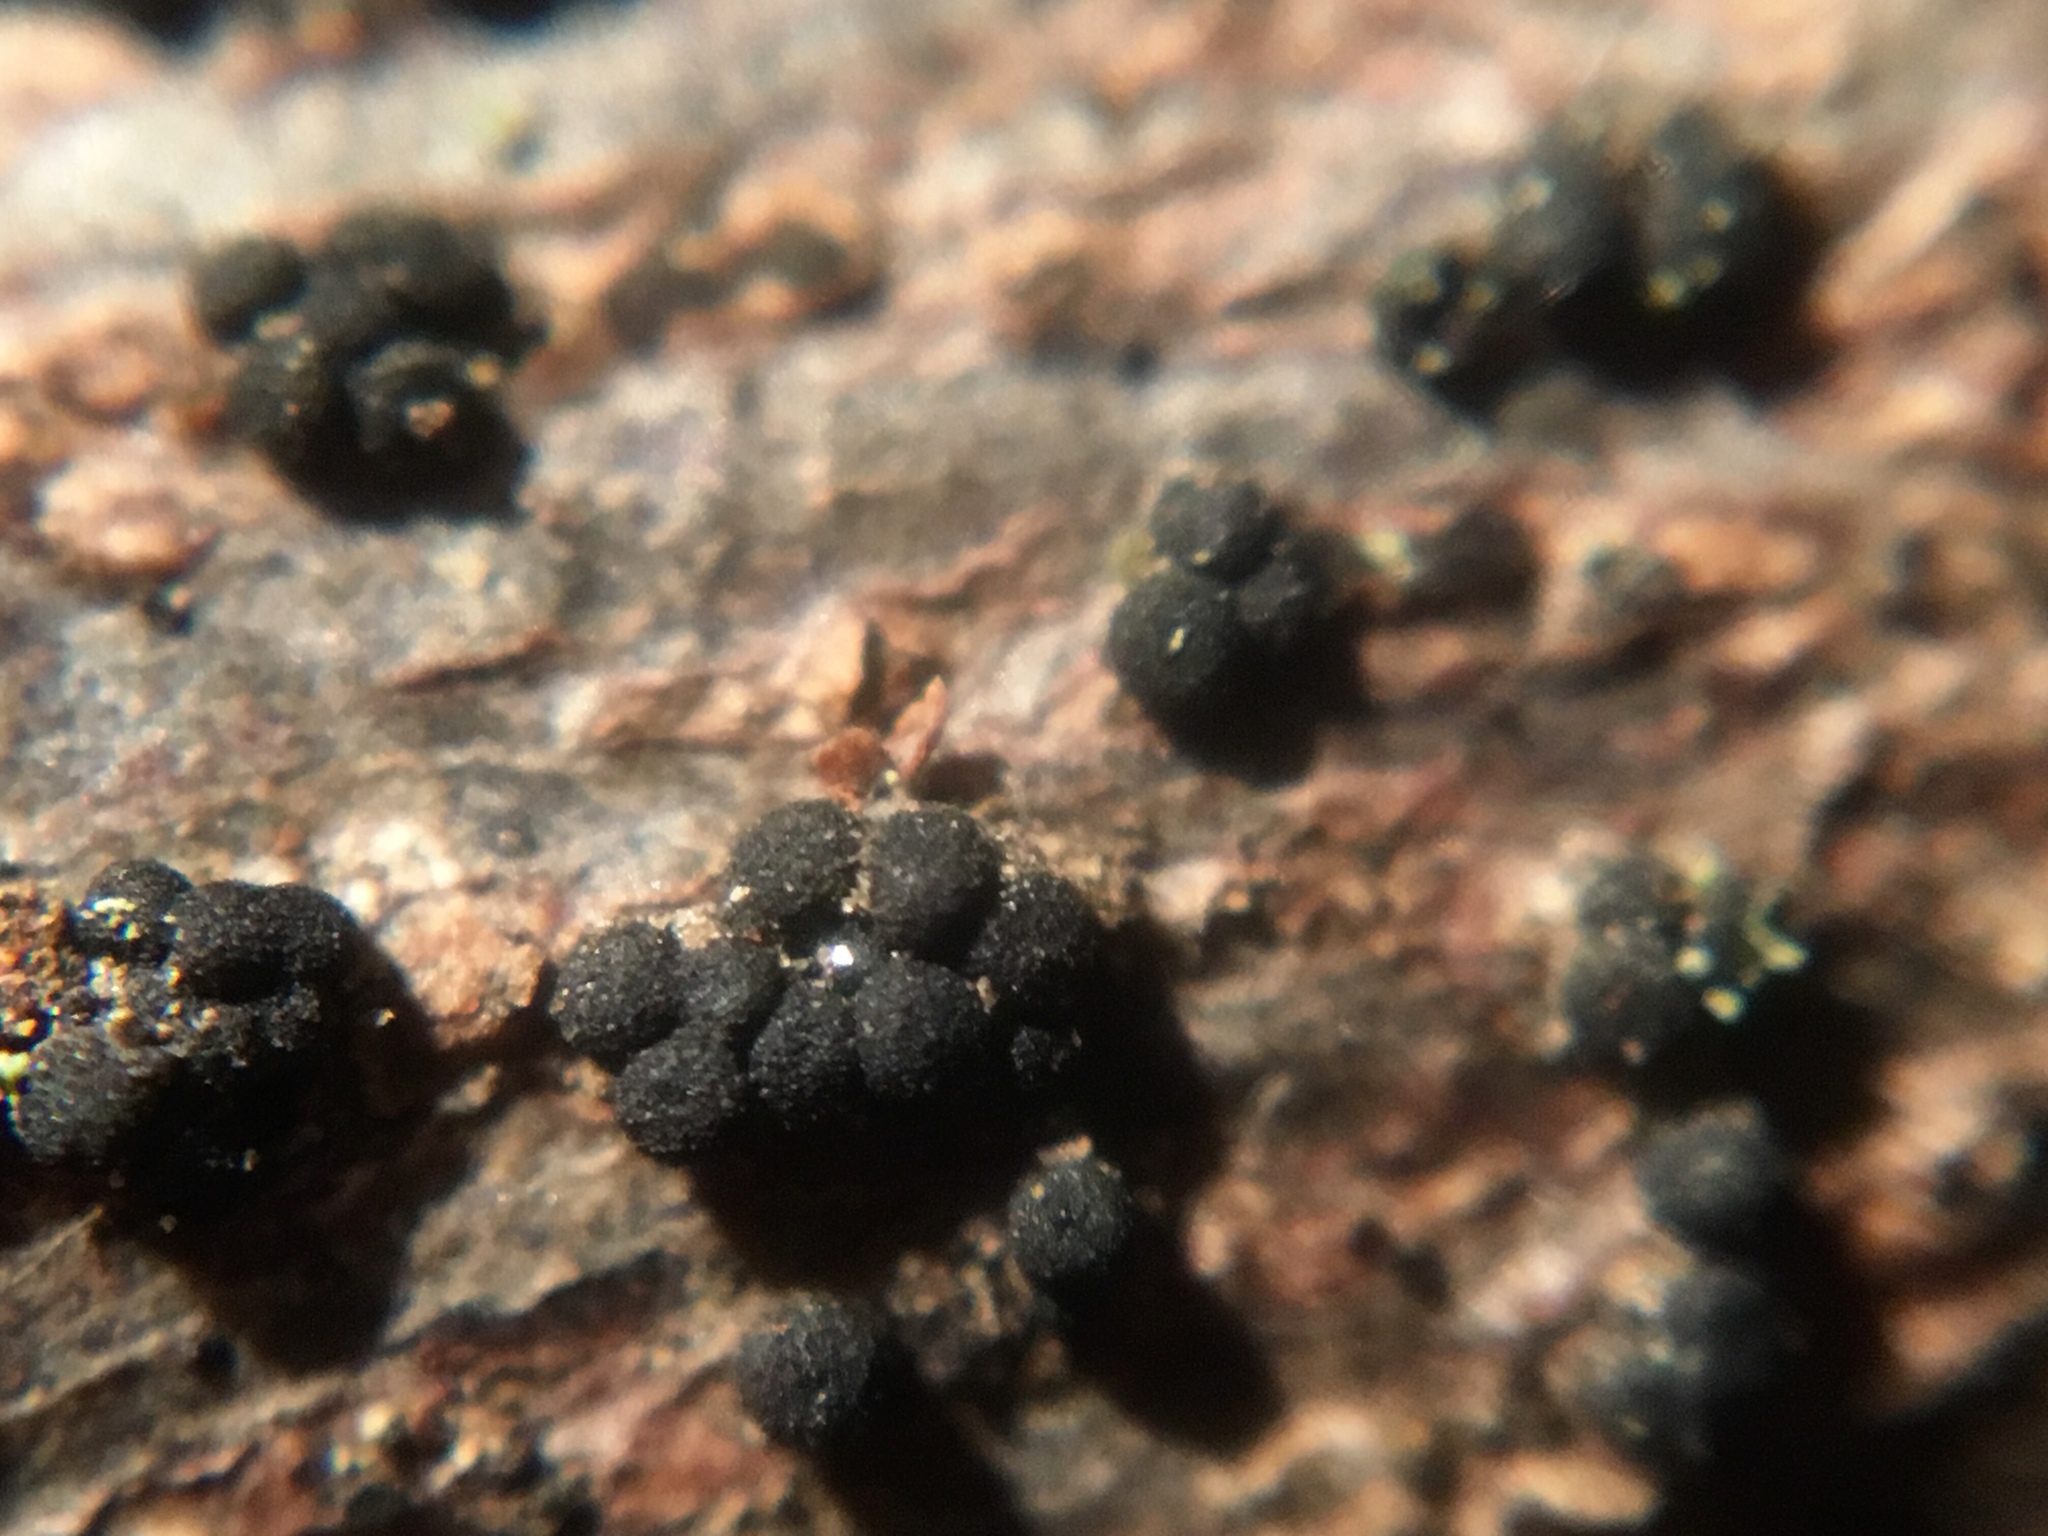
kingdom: Fungi
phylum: Ascomycota
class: Sordariomycetes
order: Coronophorales
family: Nitschkiaceae
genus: Fracchiaea
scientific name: Fracchiaea broomeana
